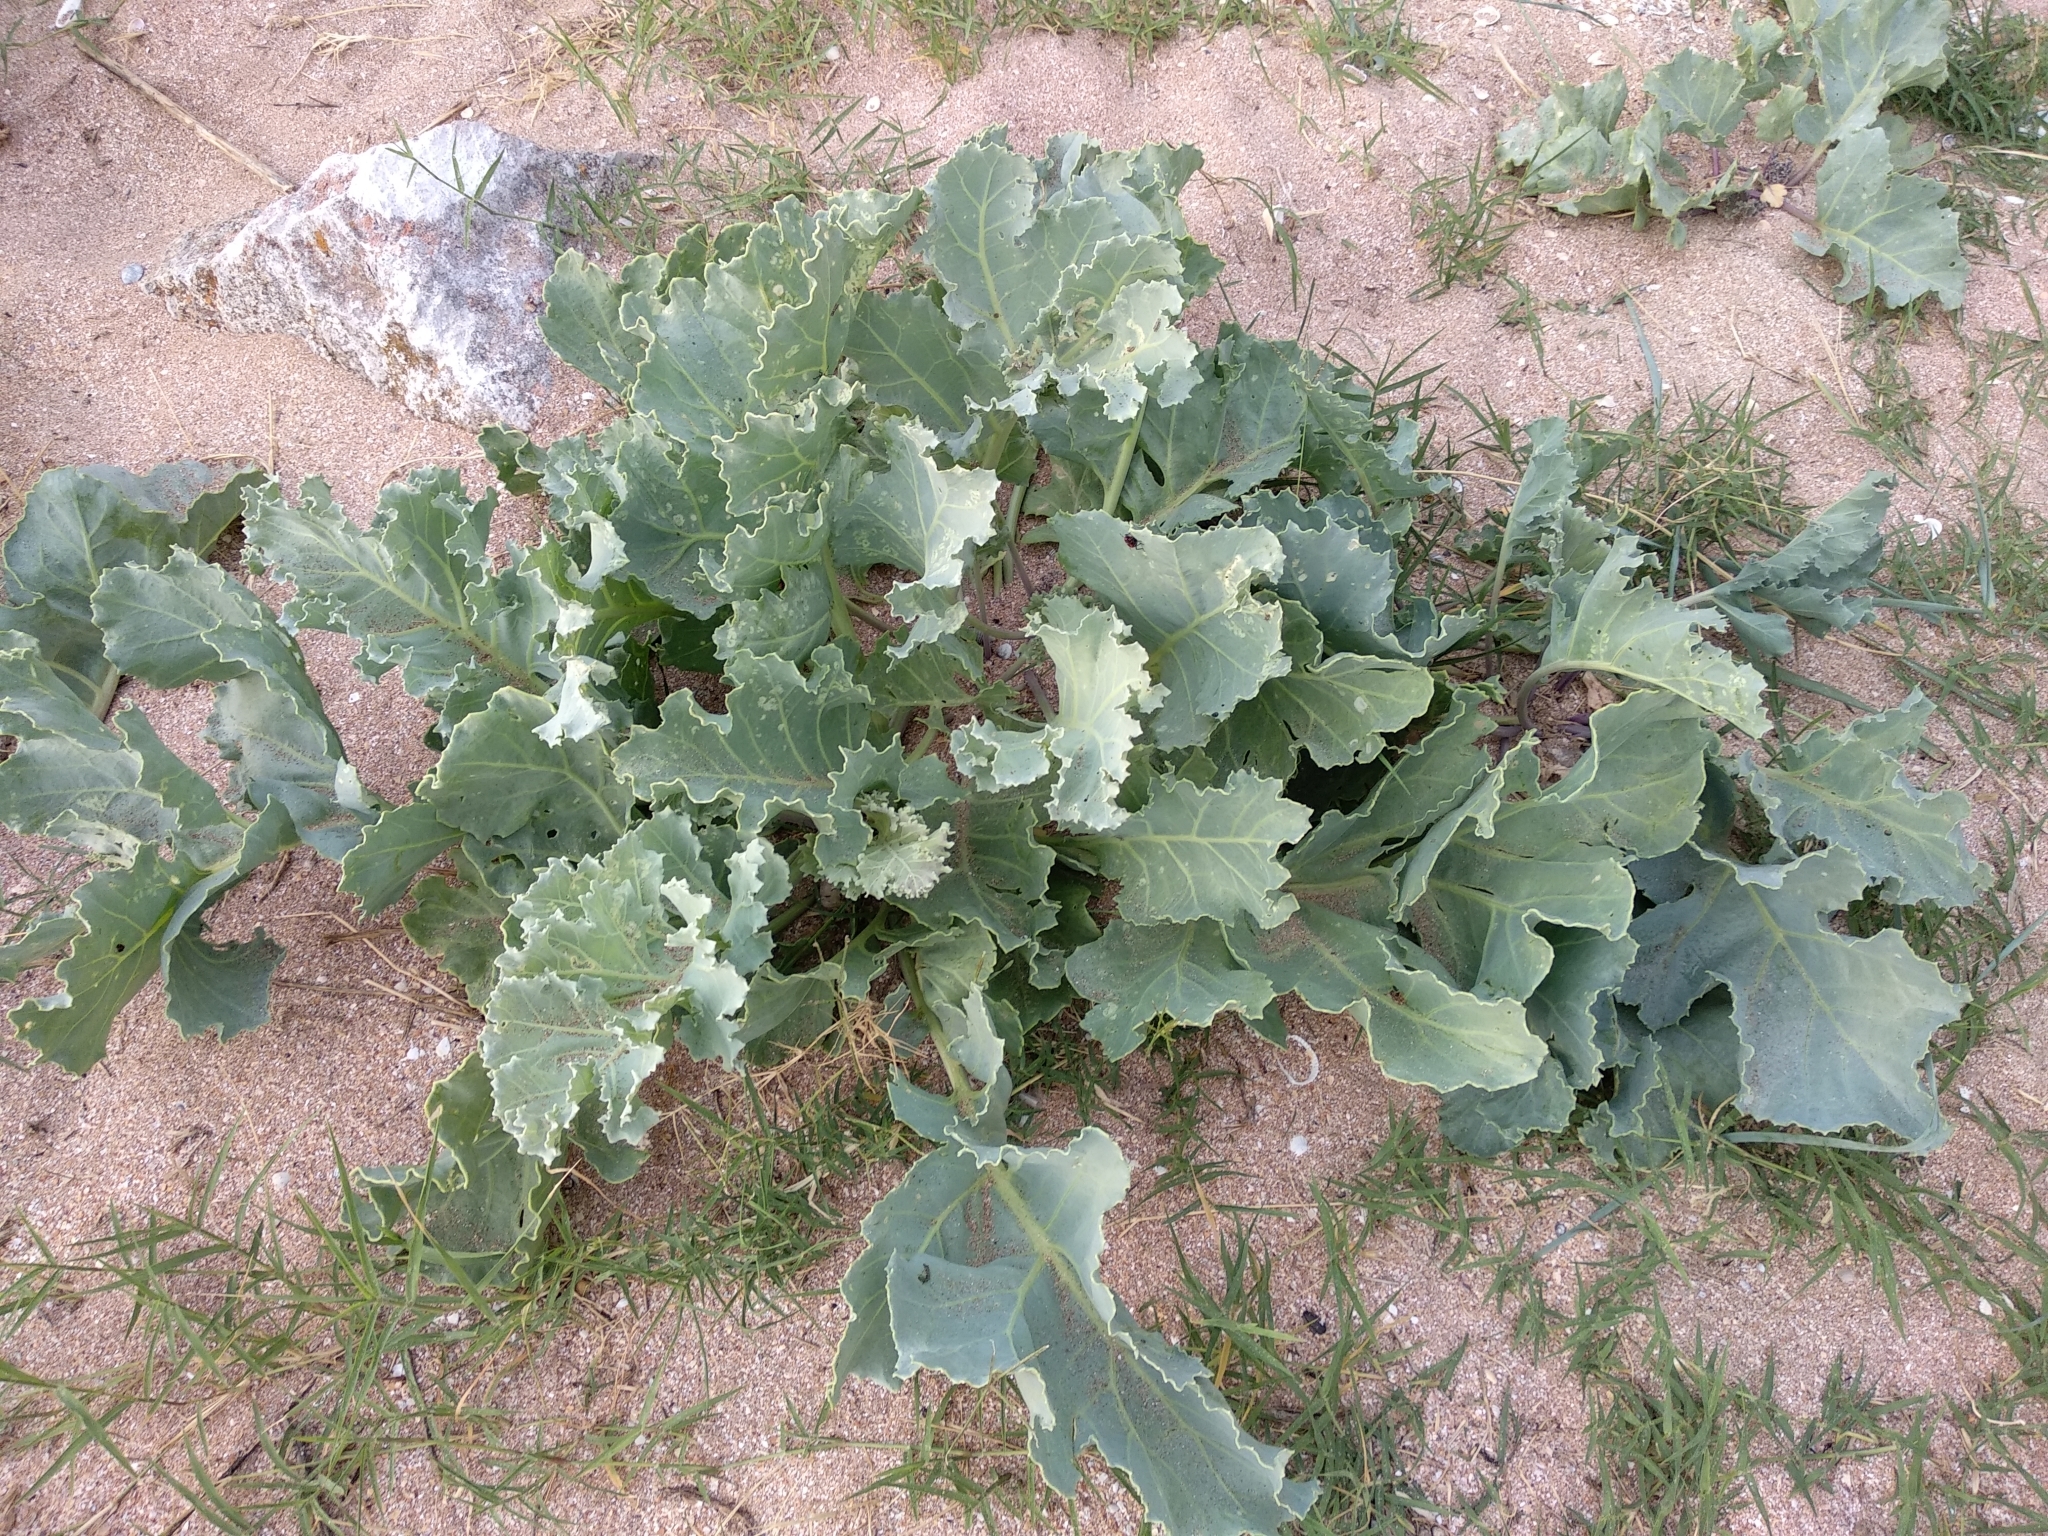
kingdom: Plantae
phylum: Tracheophyta
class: Magnoliopsida
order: Brassicales
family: Brassicaceae
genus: Crambe
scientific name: Crambe maritima
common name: Sea-kale
